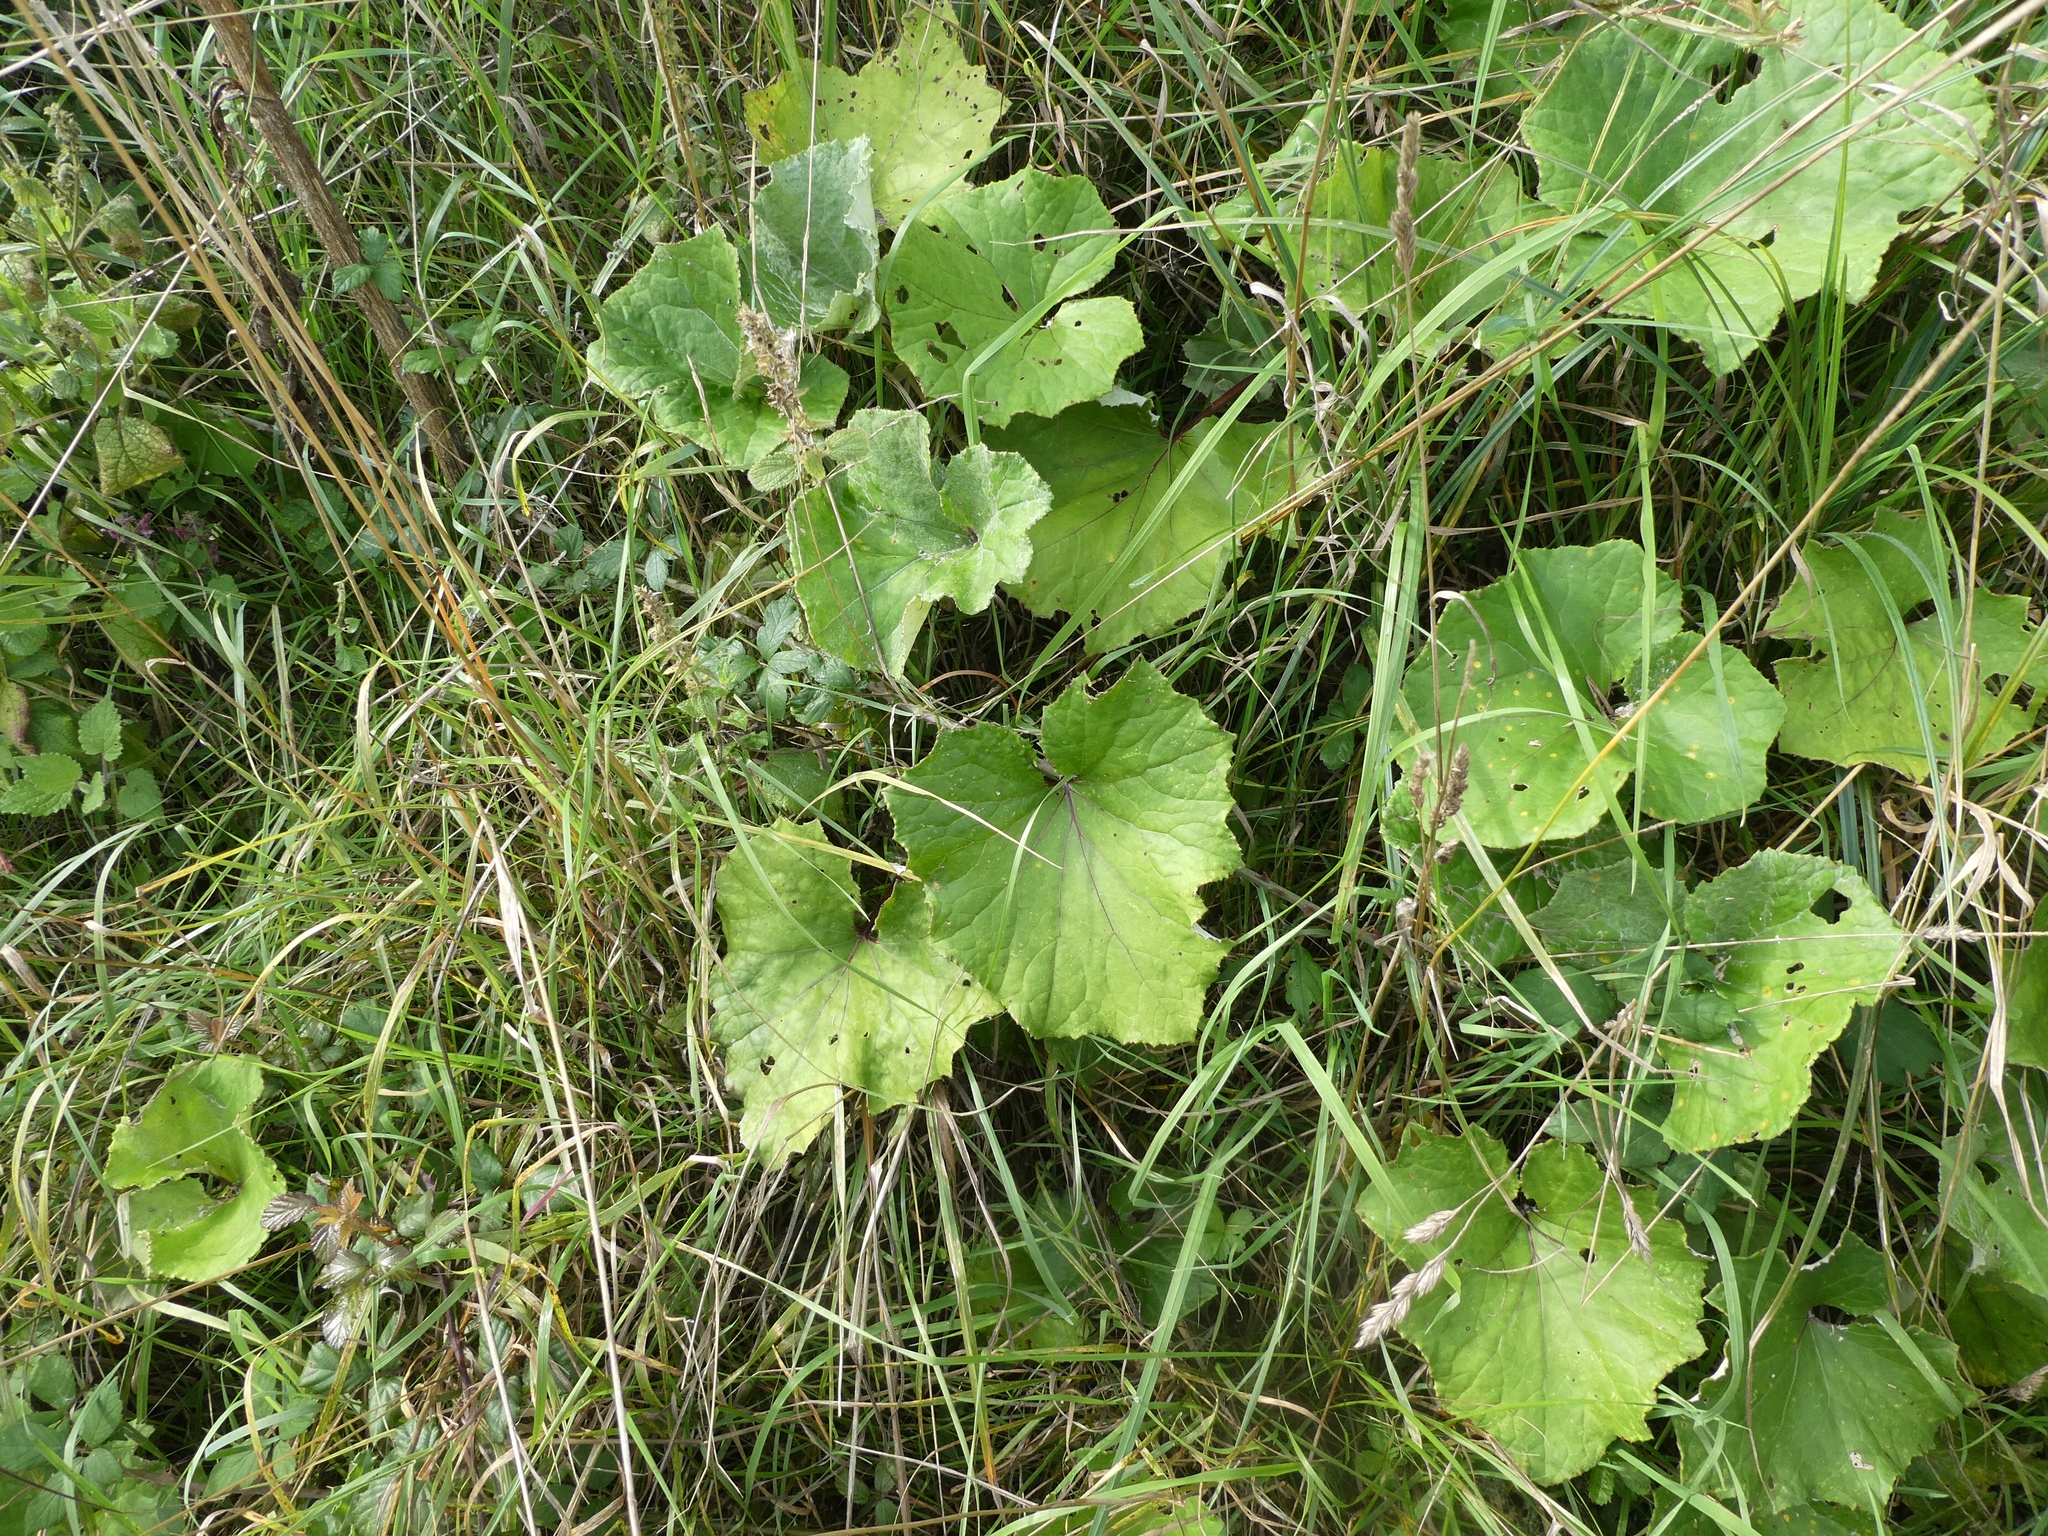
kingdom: Plantae
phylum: Tracheophyta
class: Magnoliopsida
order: Asterales
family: Asteraceae
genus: Tussilago
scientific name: Tussilago farfara
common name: Coltsfoot
